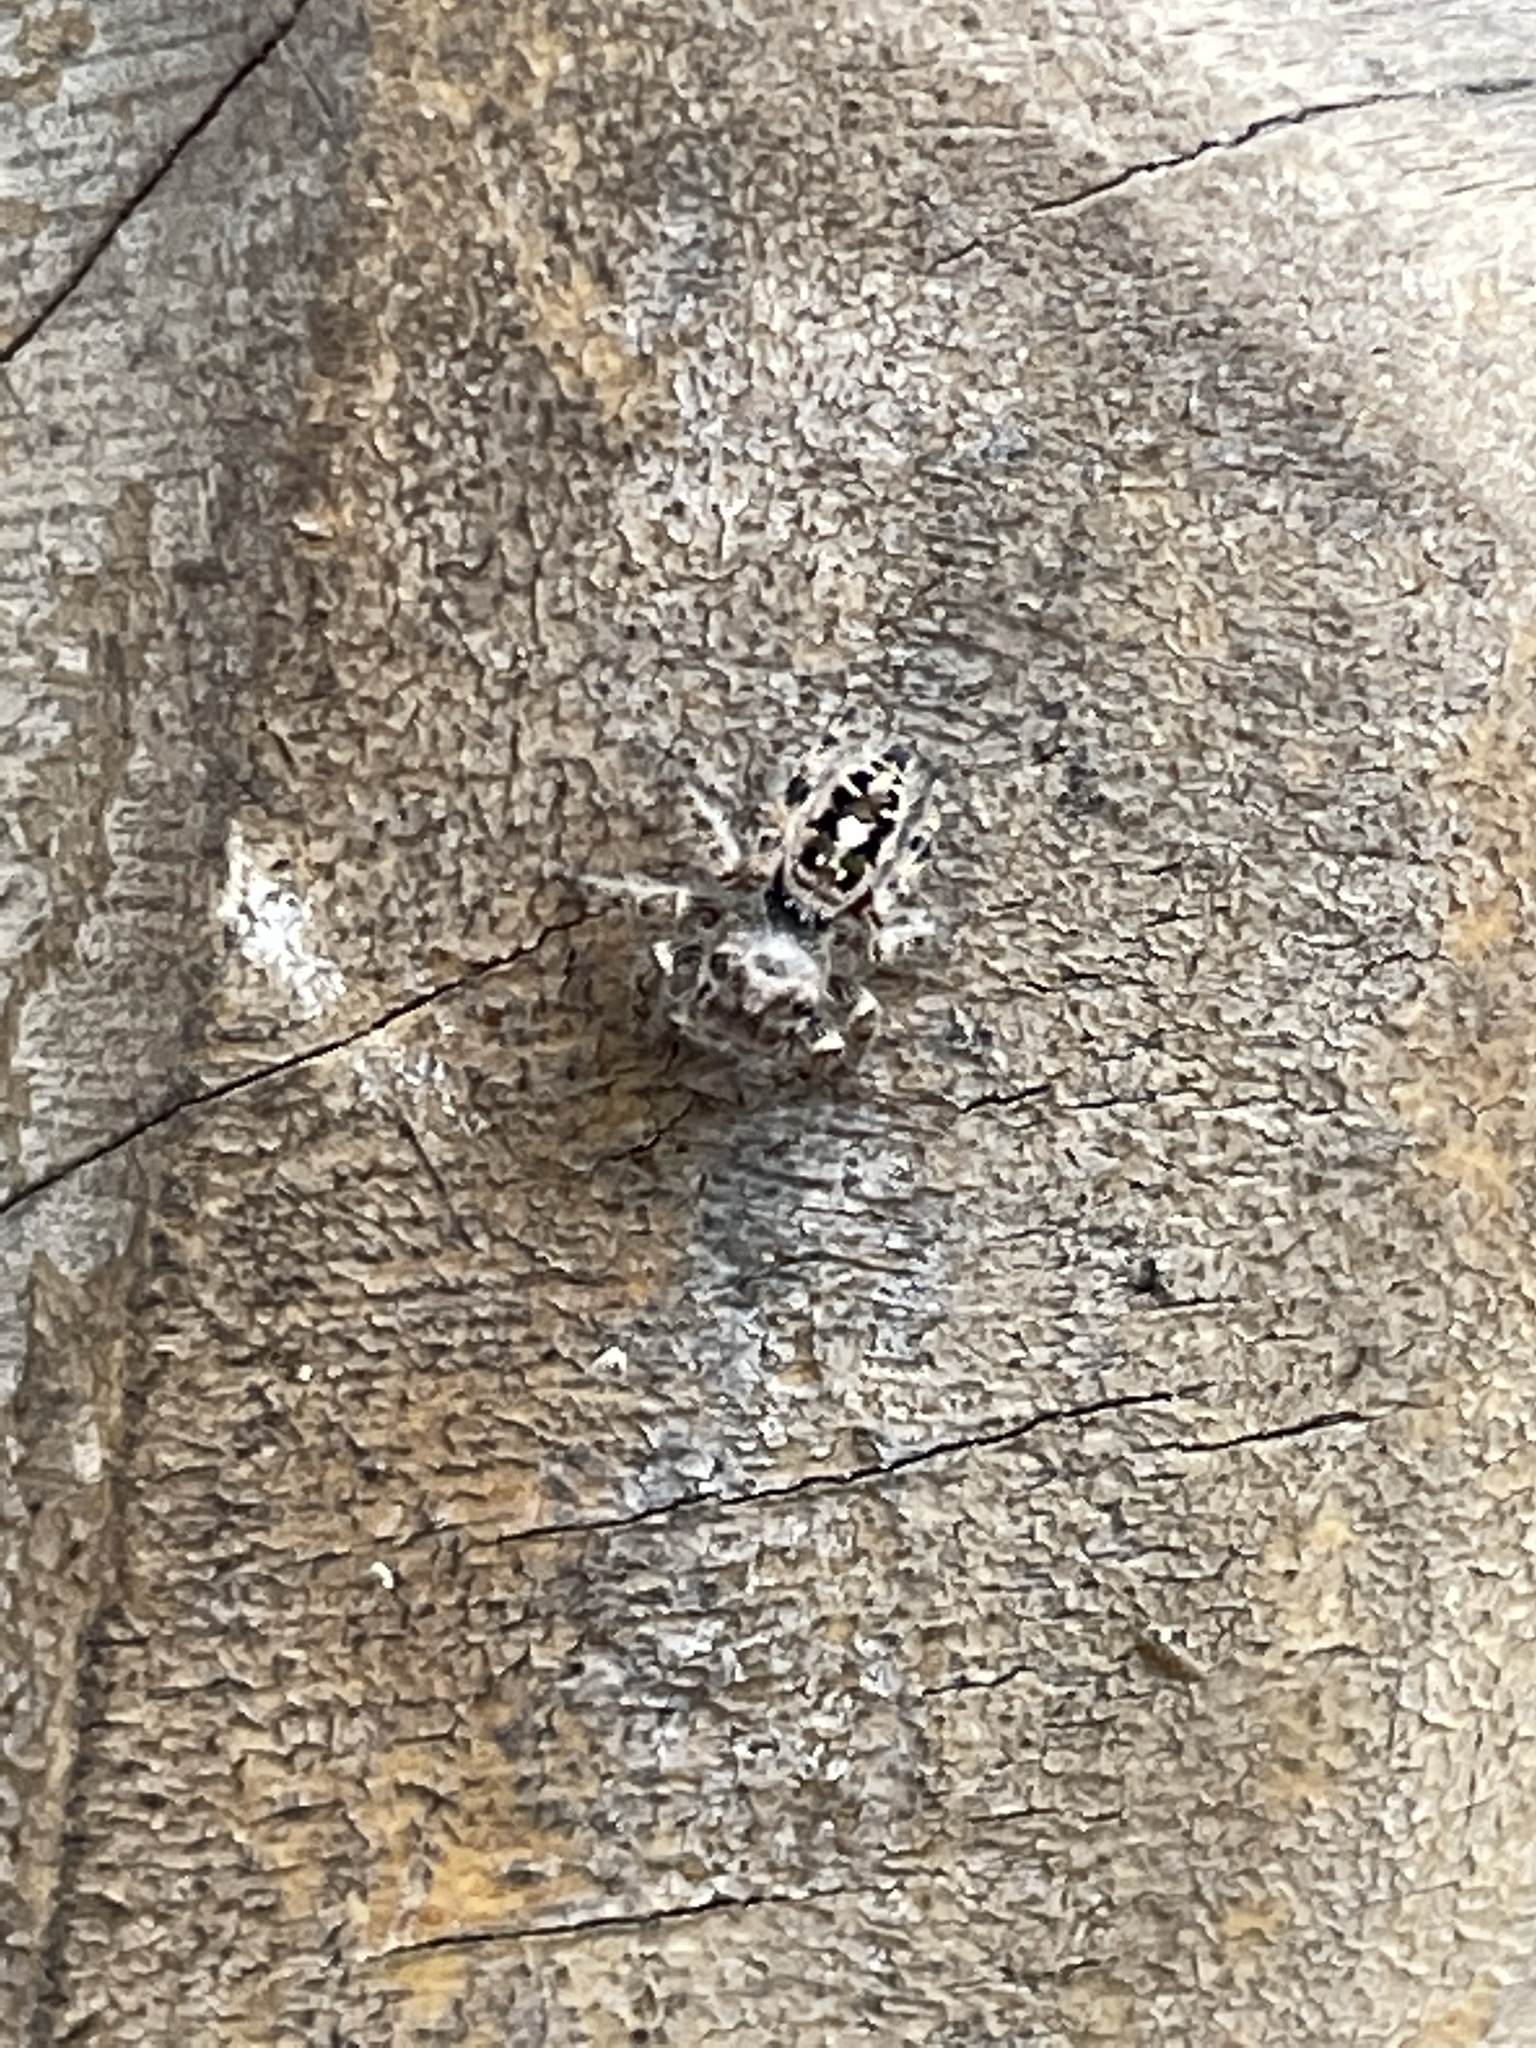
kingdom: Animalia
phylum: Arthropoda
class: Arachnida
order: Araneae
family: Salticidae
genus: Phidippus
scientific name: Phidippus putnami
